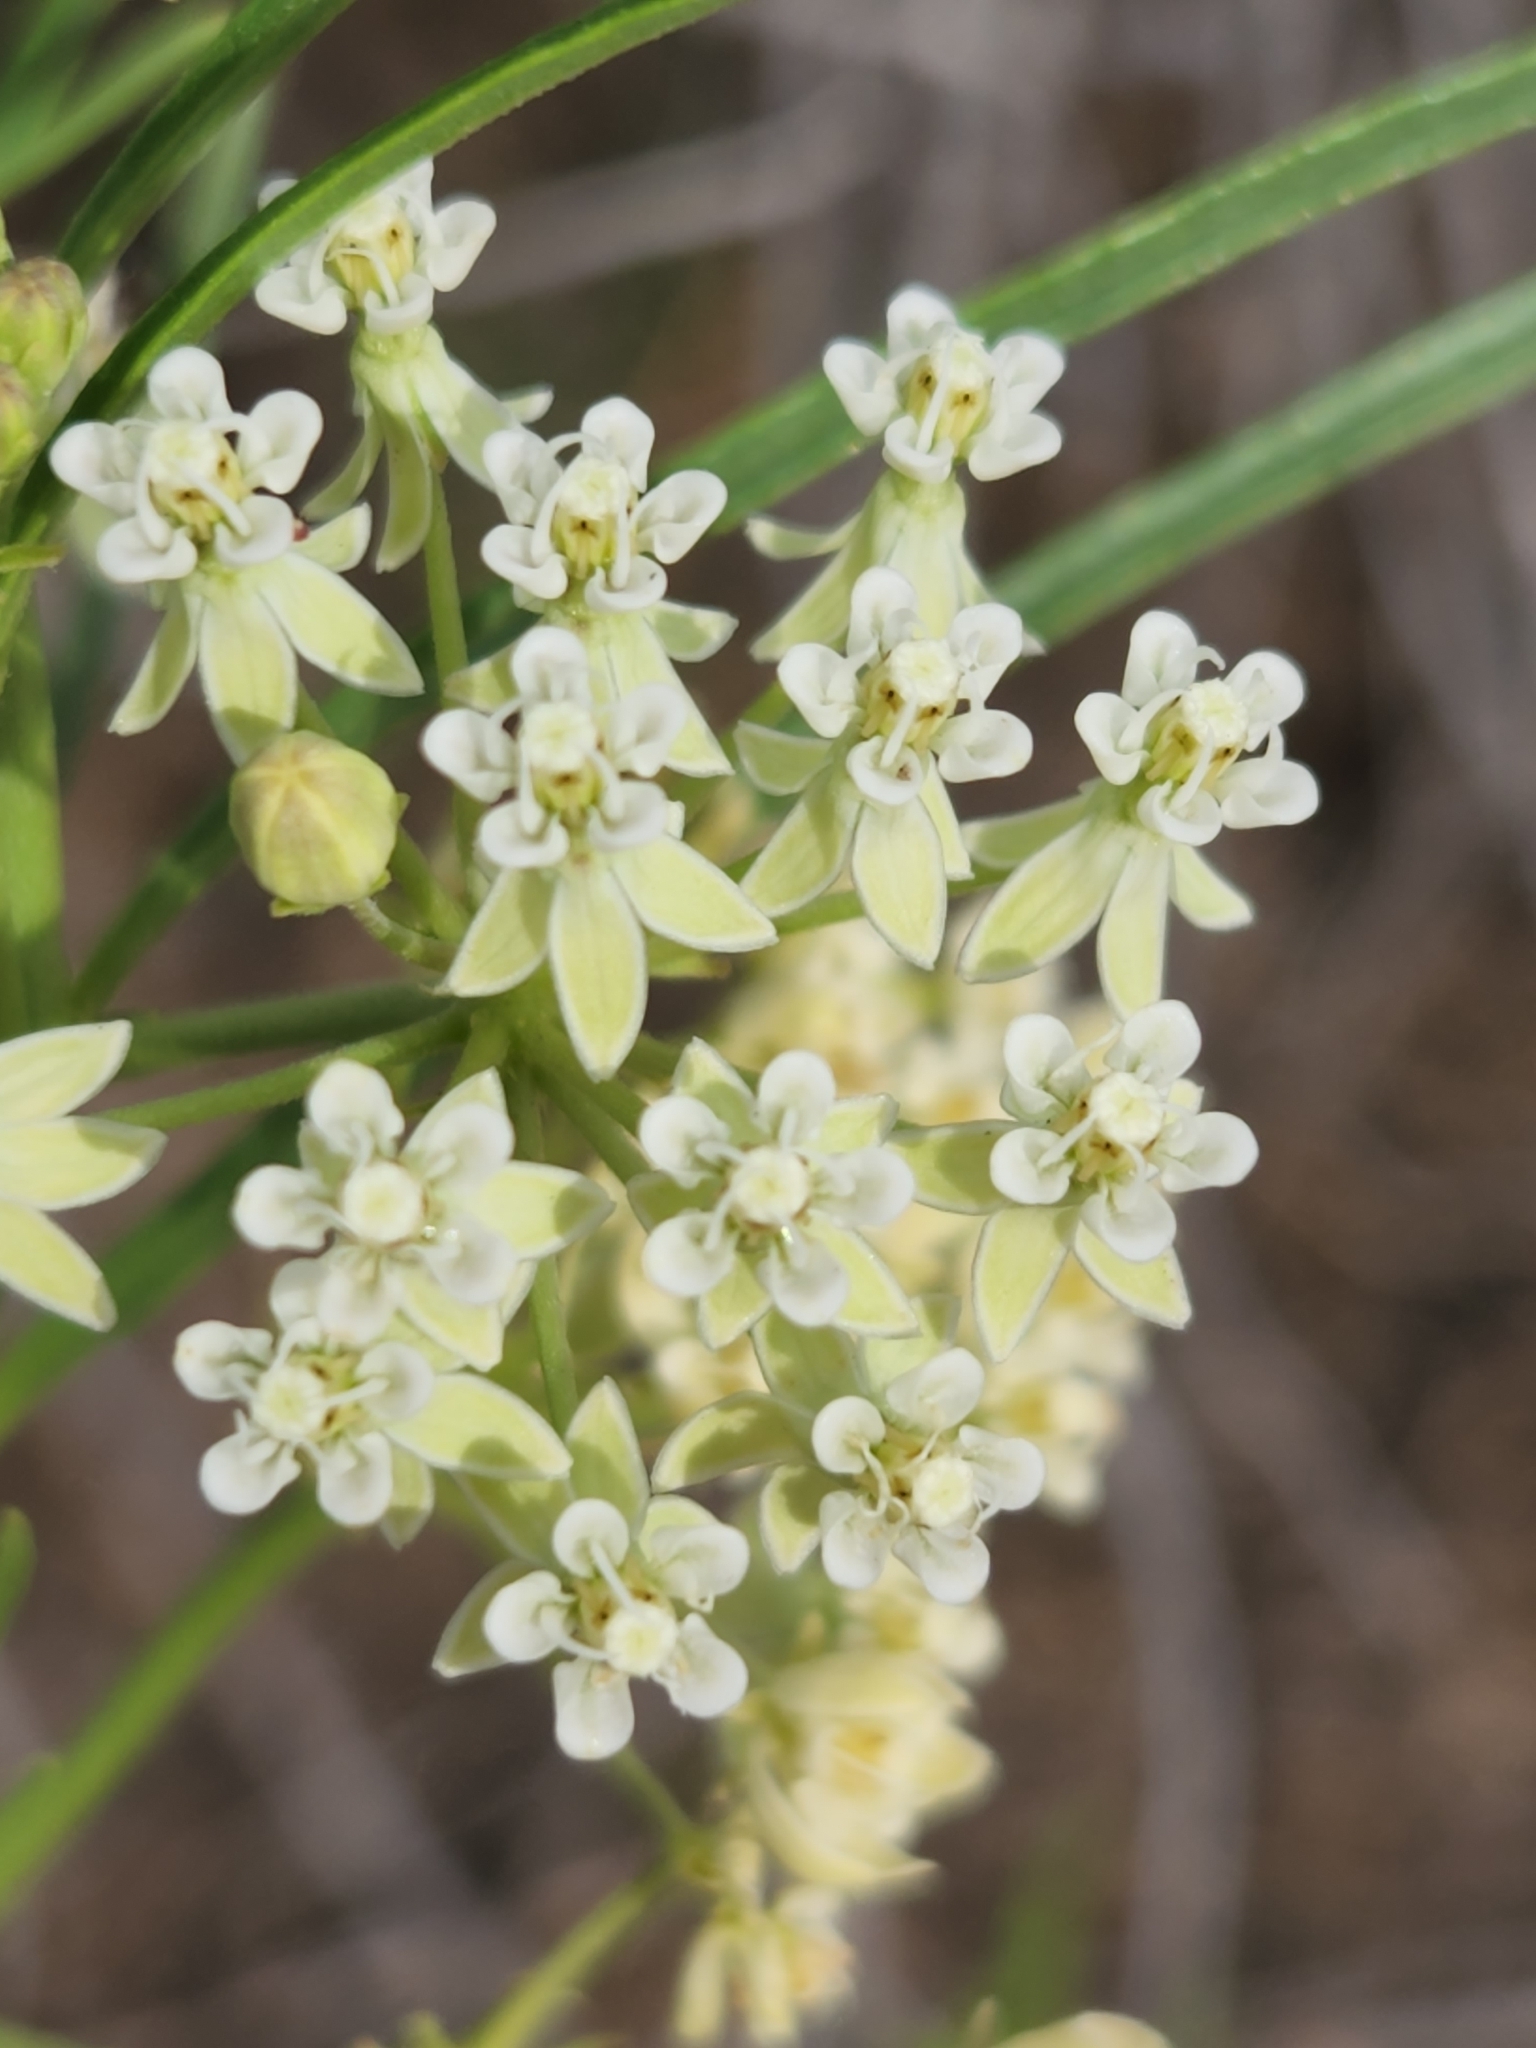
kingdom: Plantae
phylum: Tracheophyta
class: Magnoliopsida
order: Gentianales
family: Apocynaceae
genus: Asclepias
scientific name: Asclepias subverticillata
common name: Horsetail milkweed
